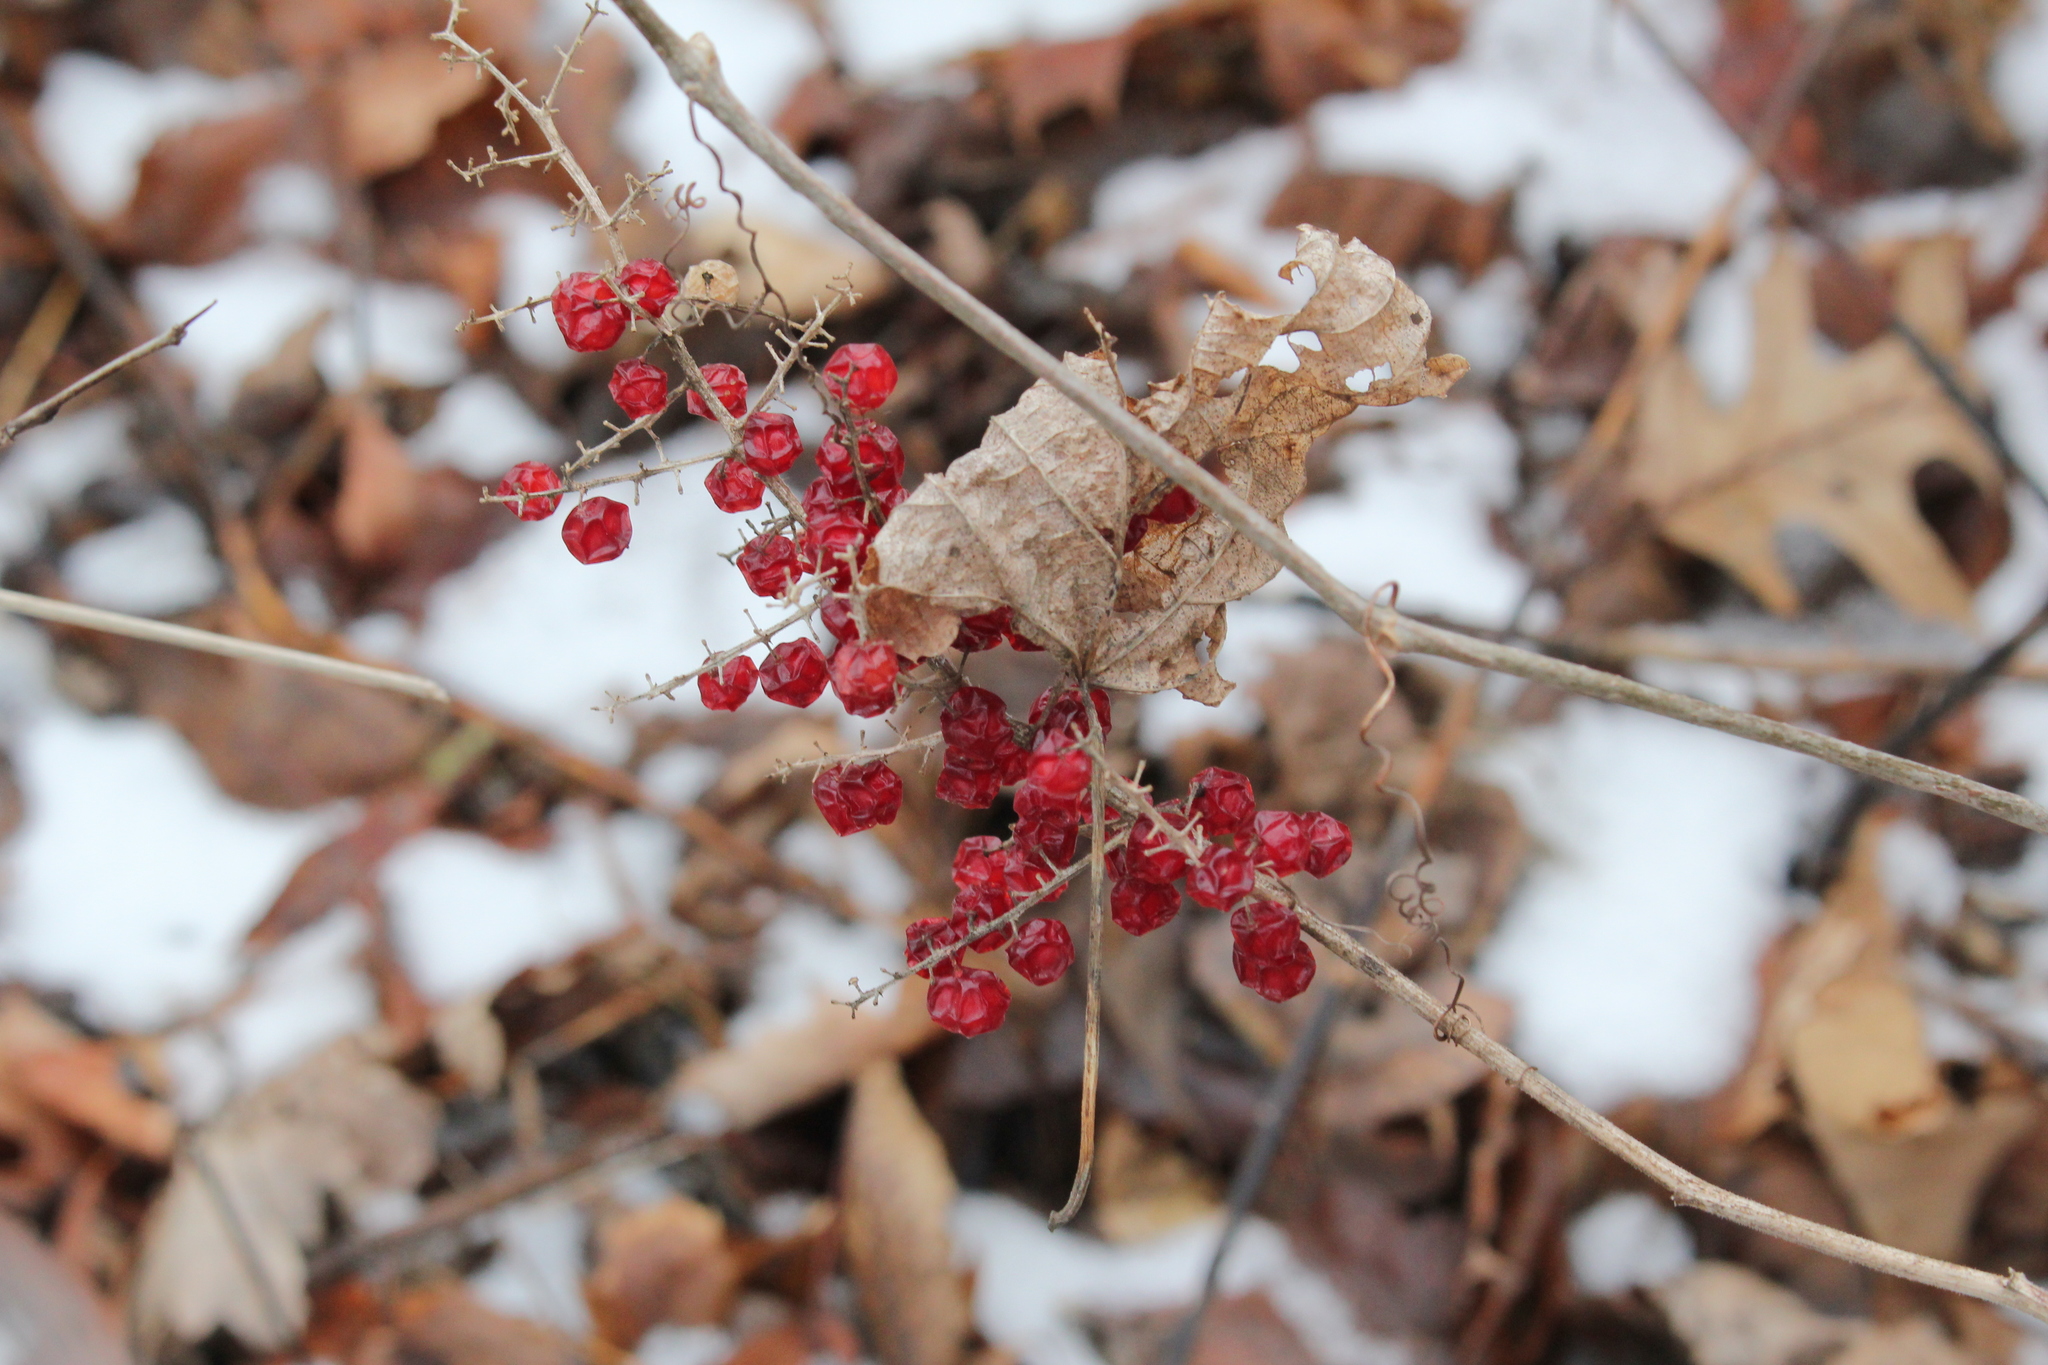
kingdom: Plantae
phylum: Tracheophyta
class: Liliopsida
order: Asparagales
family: Asparagaceae
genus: Maianthemum
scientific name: Maianthemum racemosum
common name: False spikenard
